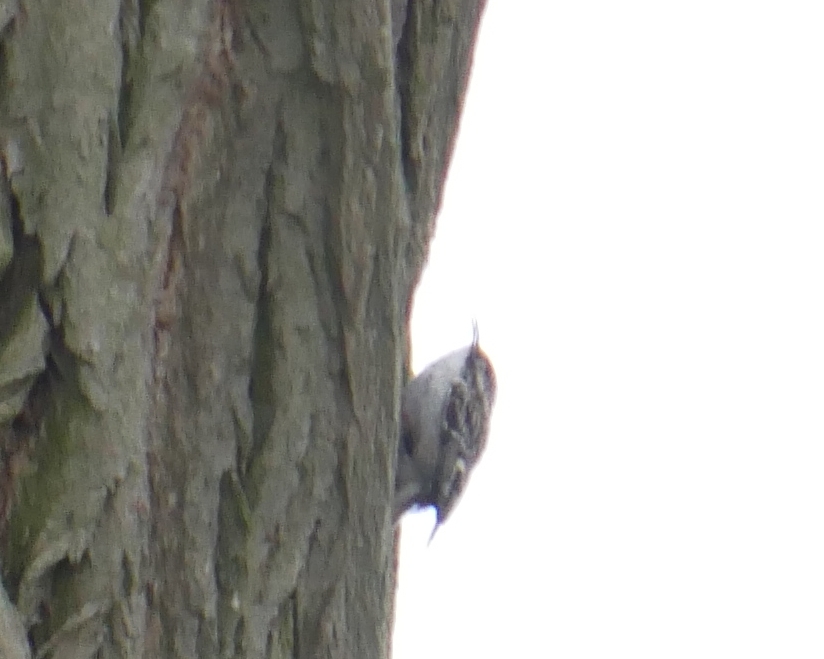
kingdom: Animalia
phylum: Chordata
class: Aves
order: Passeriformes
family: Certhiidae
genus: Certhia
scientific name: Certhia
